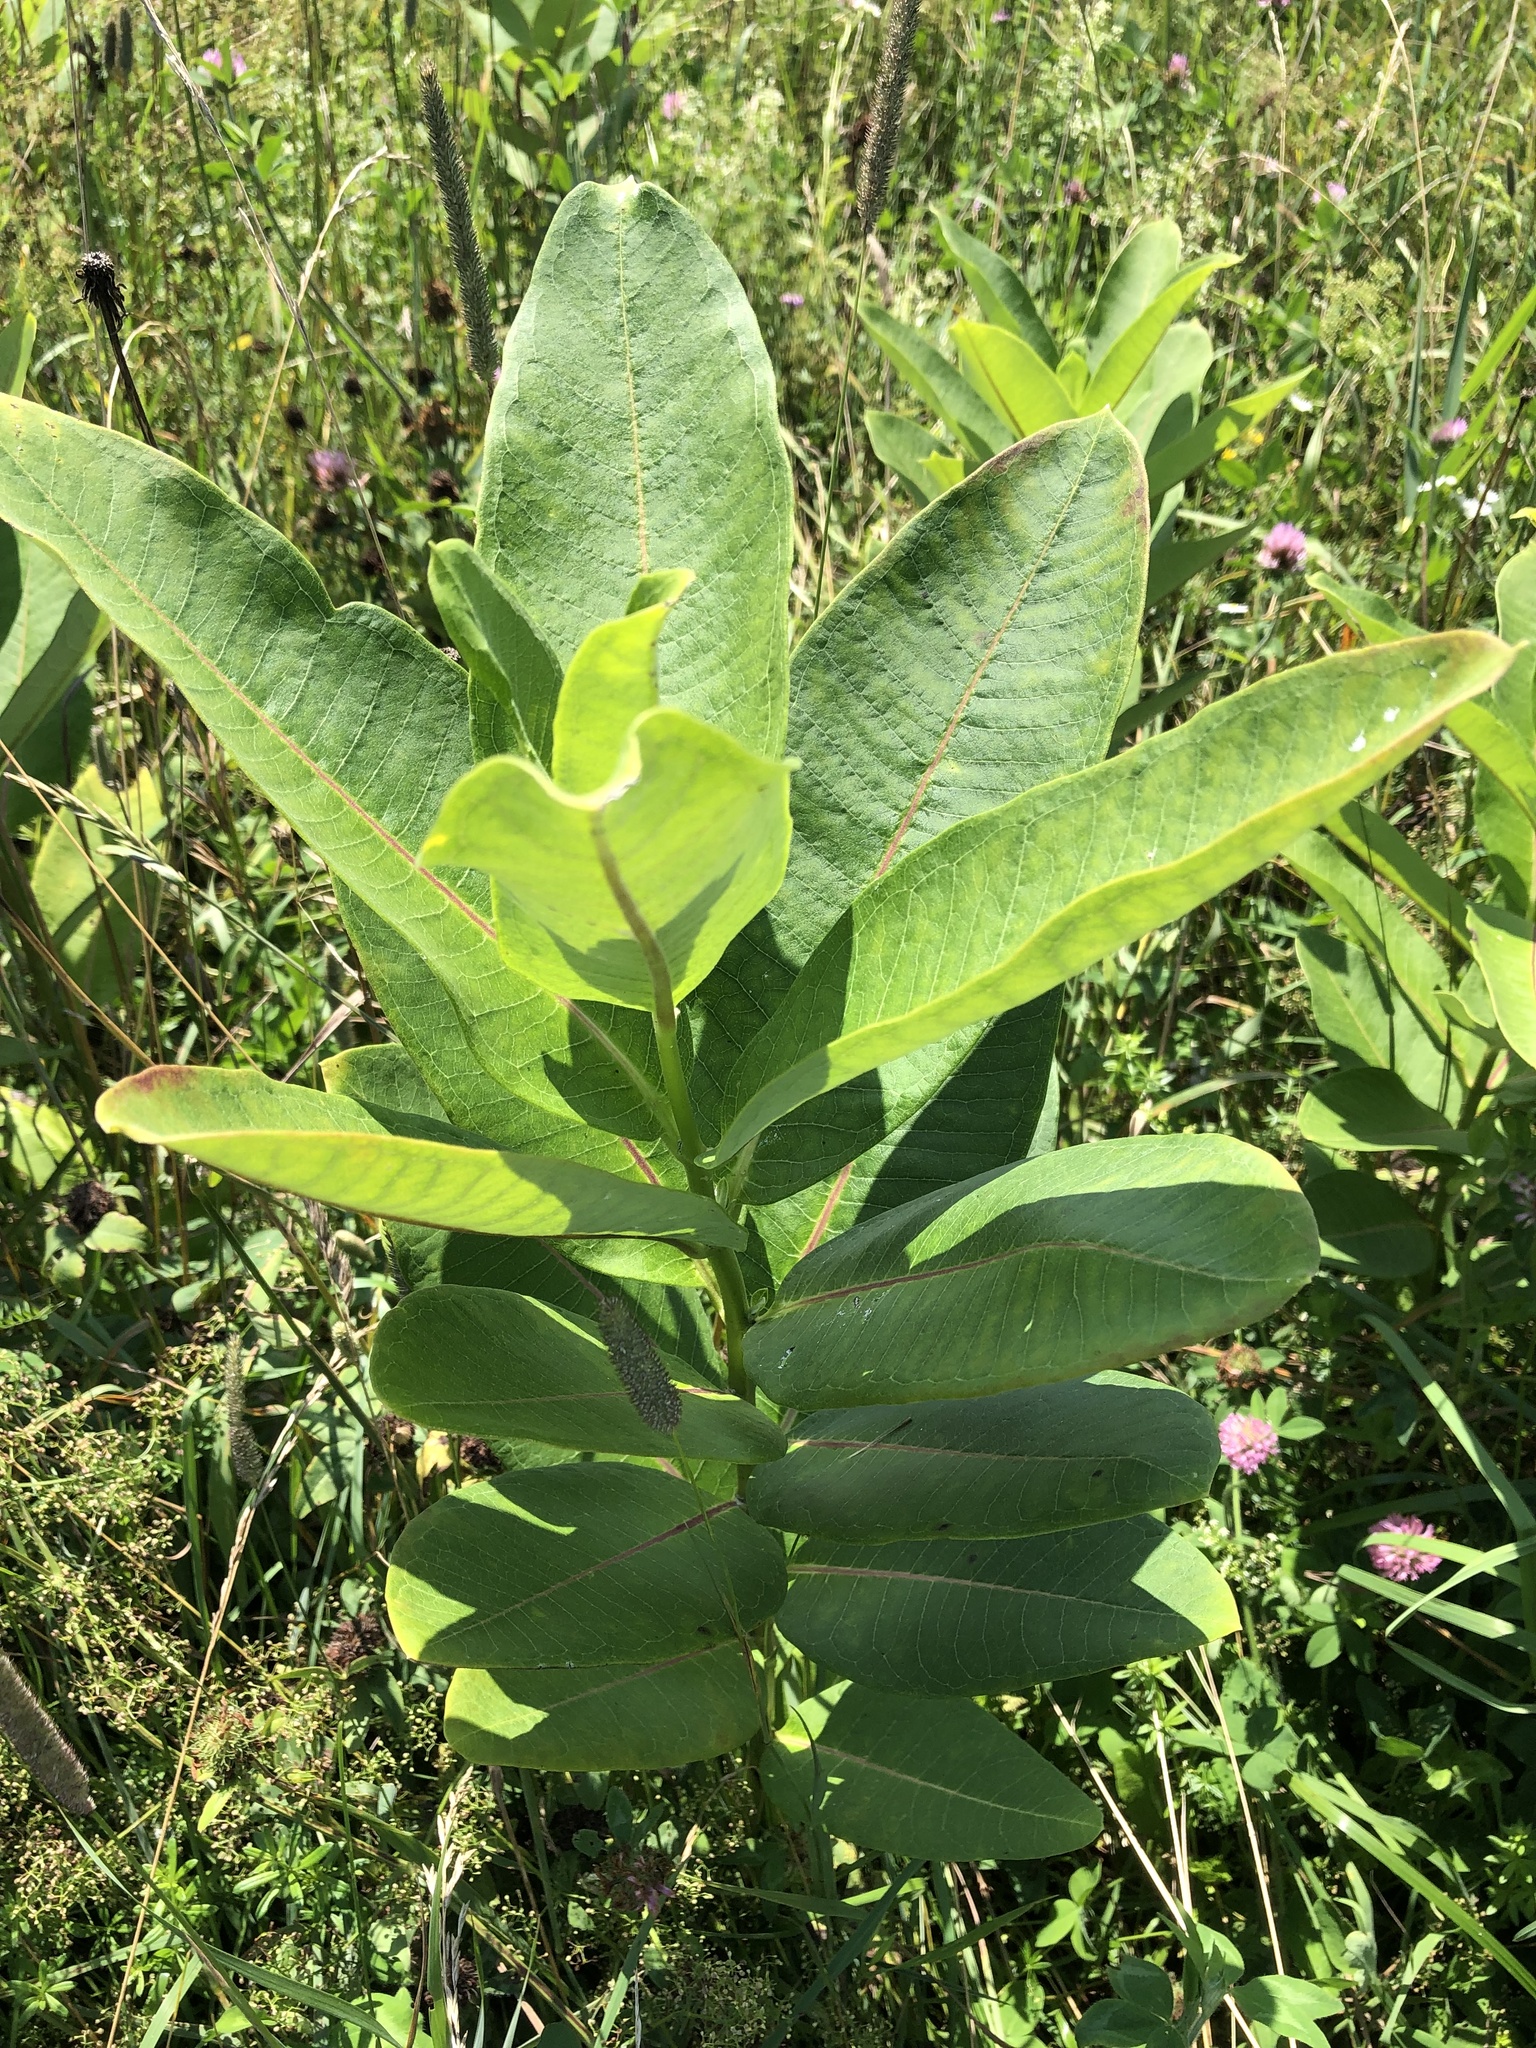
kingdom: Plantae
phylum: Tracheophyta
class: Magnoliopsida
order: Gentianales
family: Apocynaceae
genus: Asclepias
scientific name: Asclepias syriaca
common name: Common milkweed
